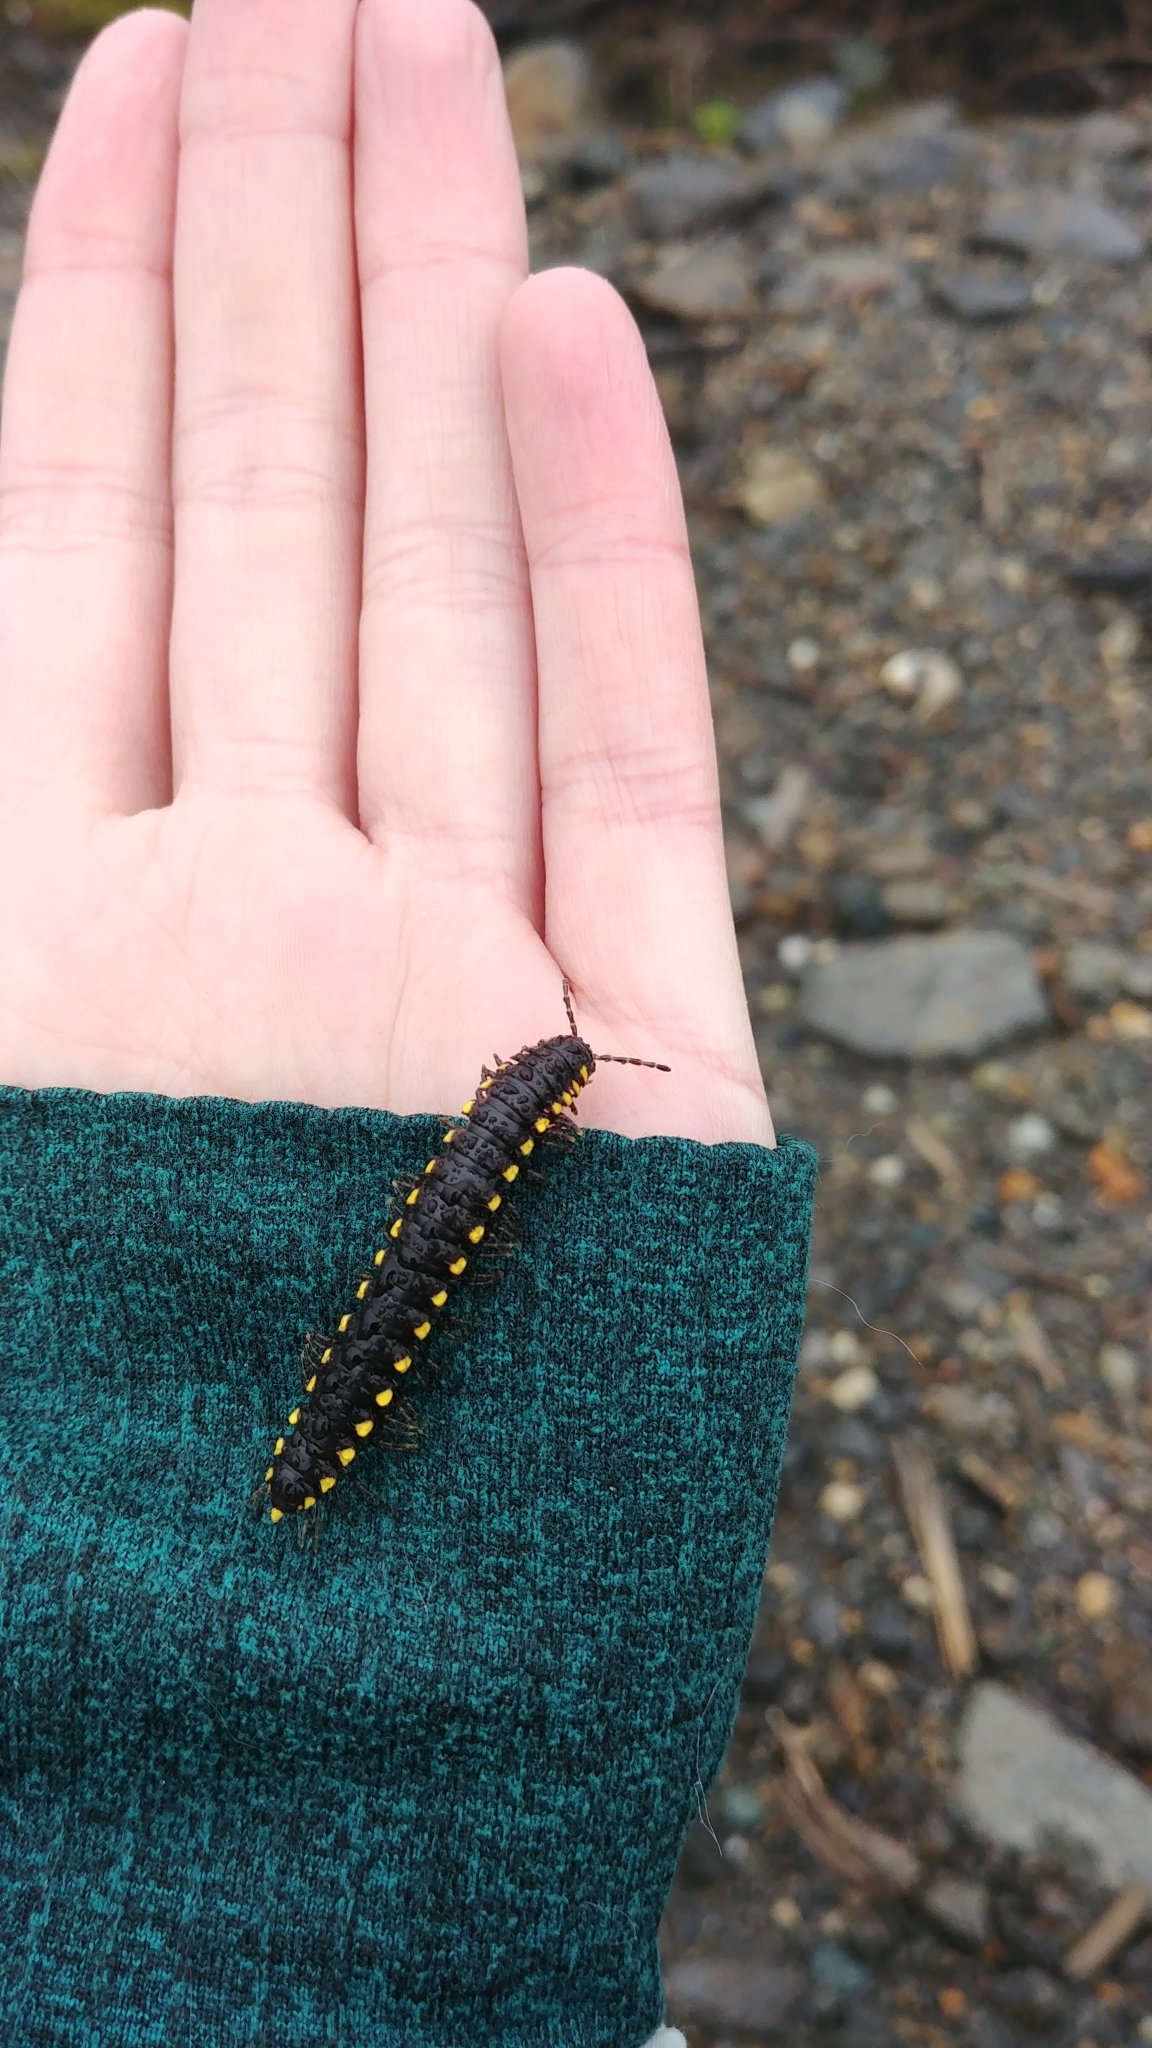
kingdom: Animalia
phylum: Arthropoda
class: Diplopoda
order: Polydesmida
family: Xystodesmidae
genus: Harpaphe
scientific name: Harpaphe haydeniana
